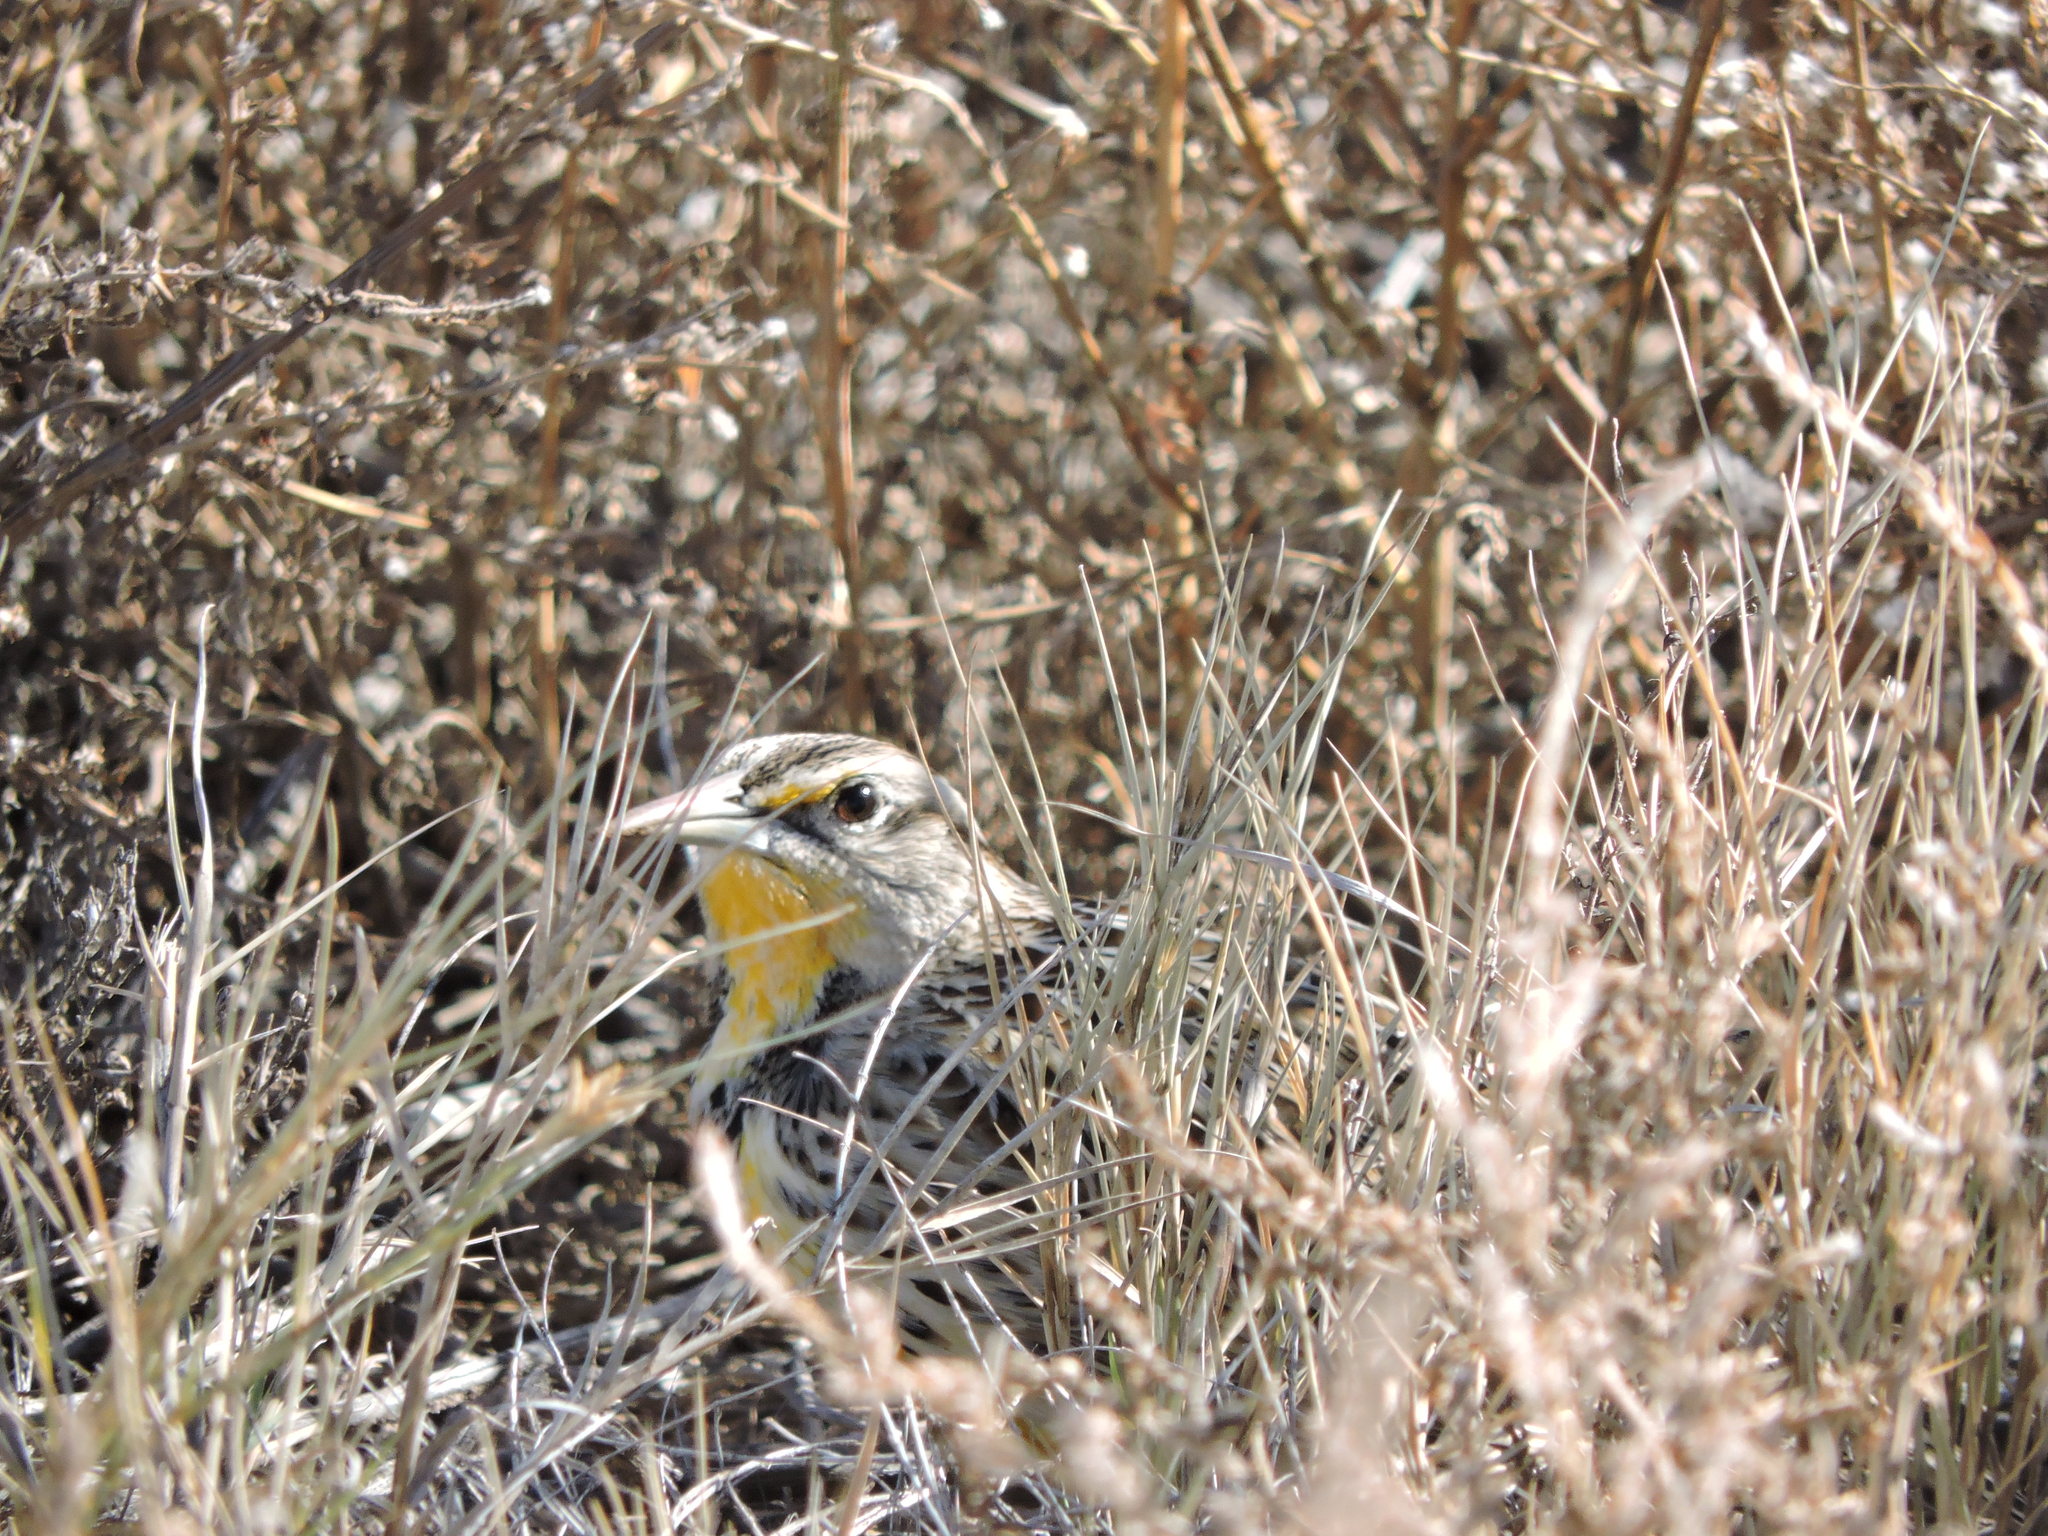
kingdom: Animalia
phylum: Chordata
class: Aves
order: Passeriformes
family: Icteridae
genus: Sturnella
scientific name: Sturnella neglecta
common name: Western meadowlark
